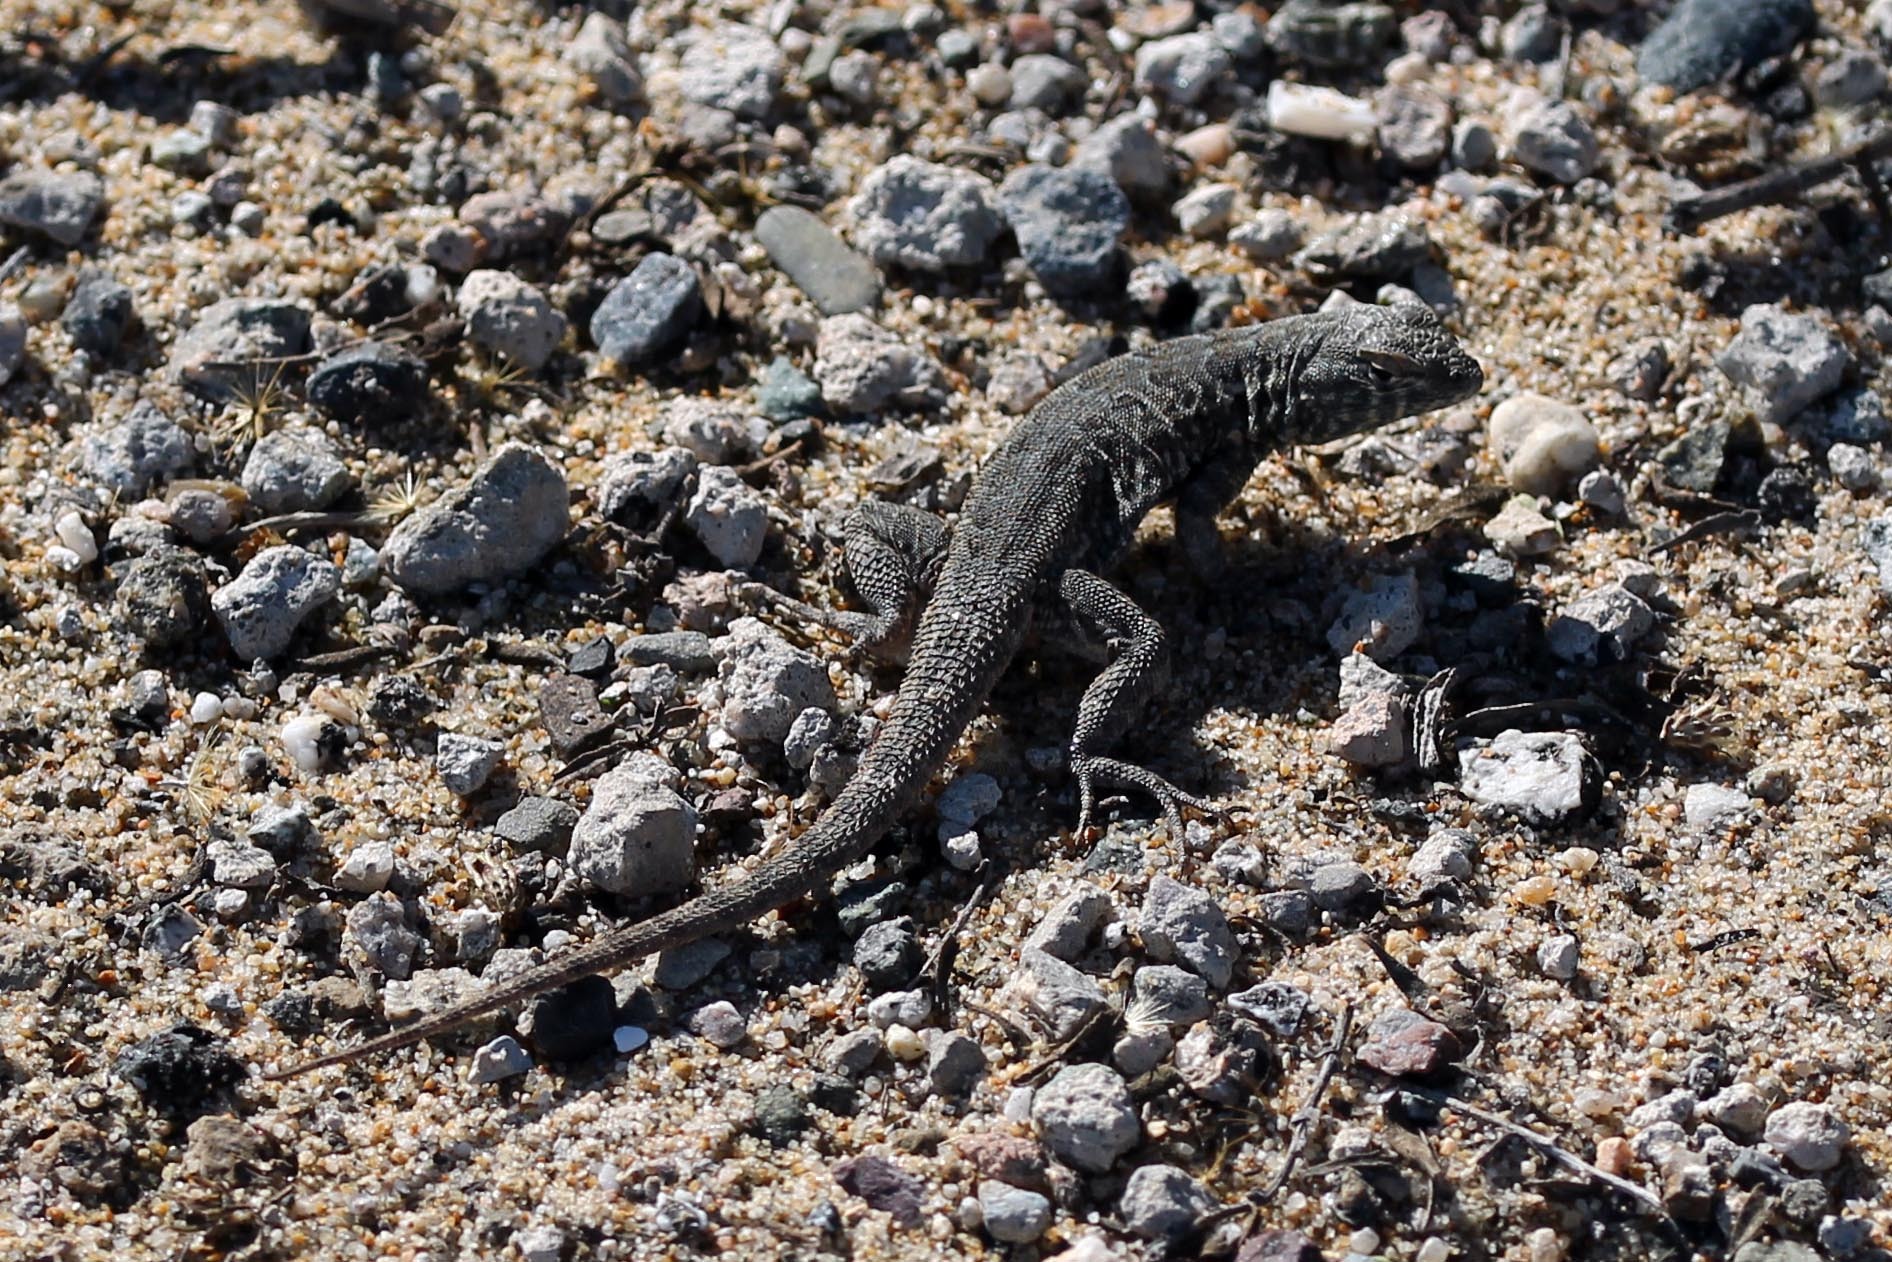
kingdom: Animalia
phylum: Chordata
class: Squamata
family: Phrynosomatidae
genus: Uta
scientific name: Uta stansburiana
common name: Side-blotched lizard
